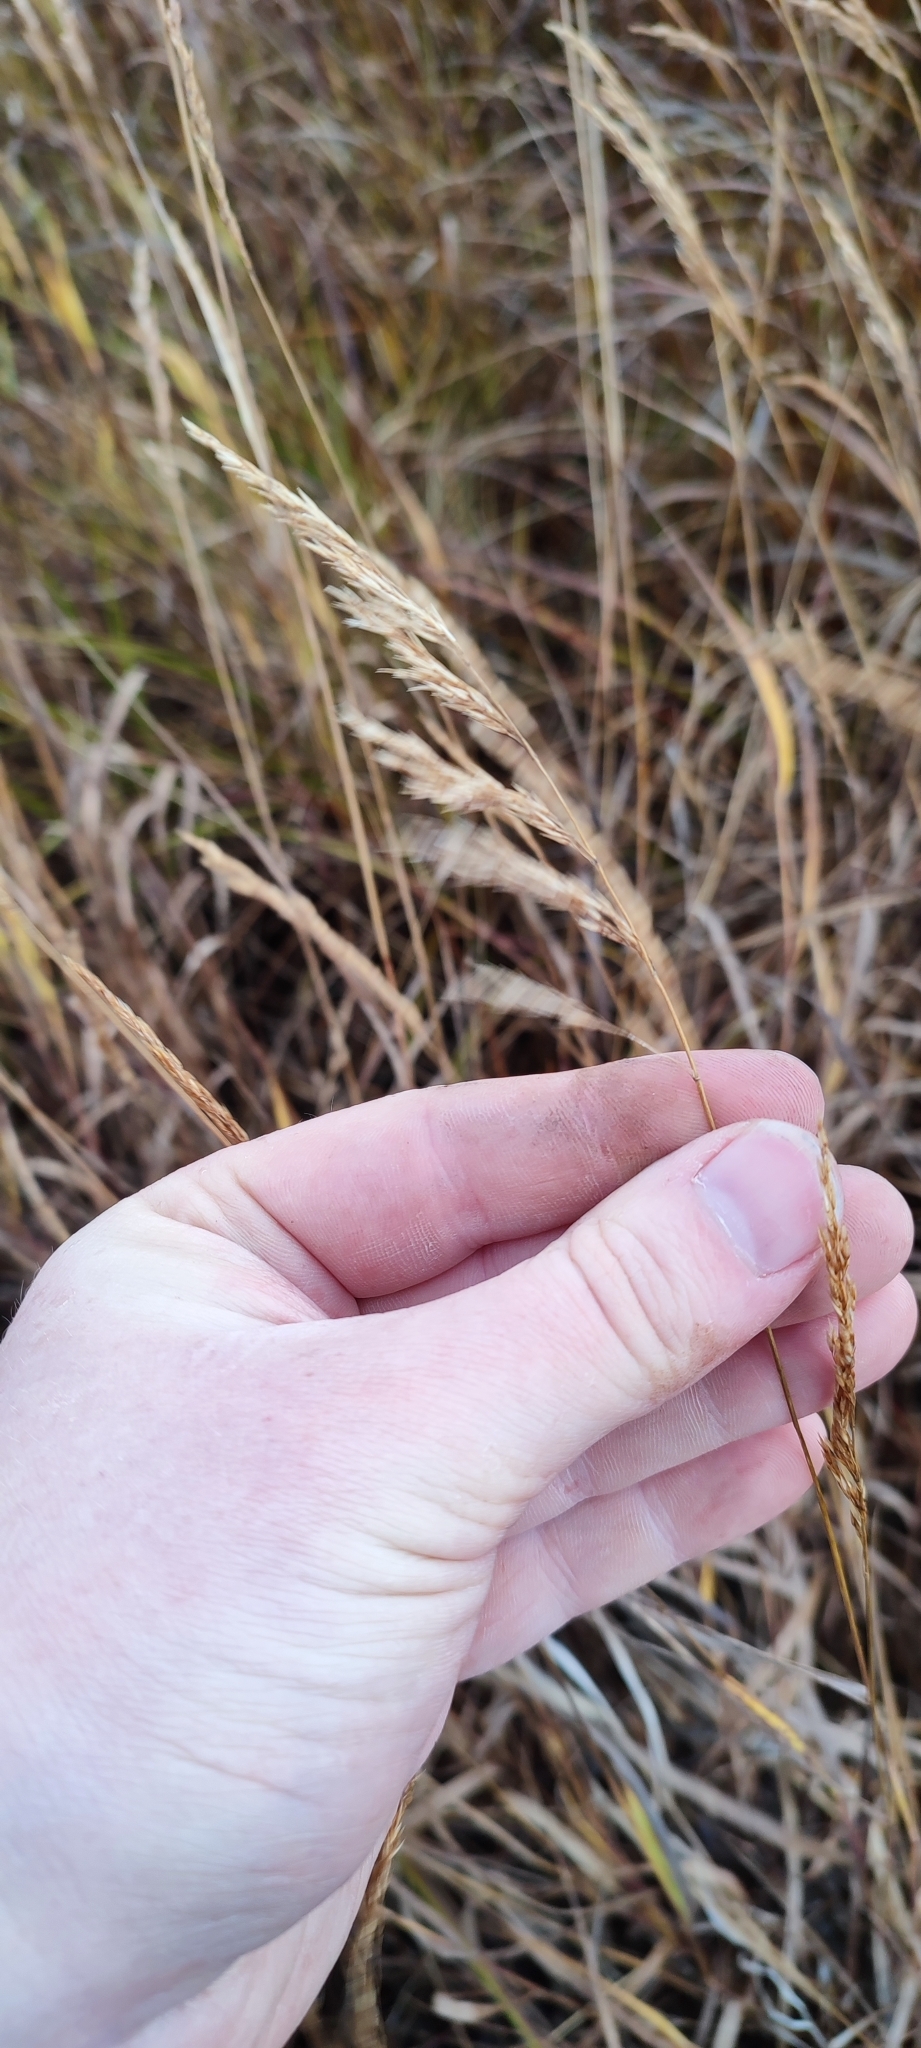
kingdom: Plantae
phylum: Tracheophyta
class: Liliopsida
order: Poales
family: Poaceae
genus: Calamagrostis
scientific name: Calamagrostis purpurea
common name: Scandinavian small-reed
